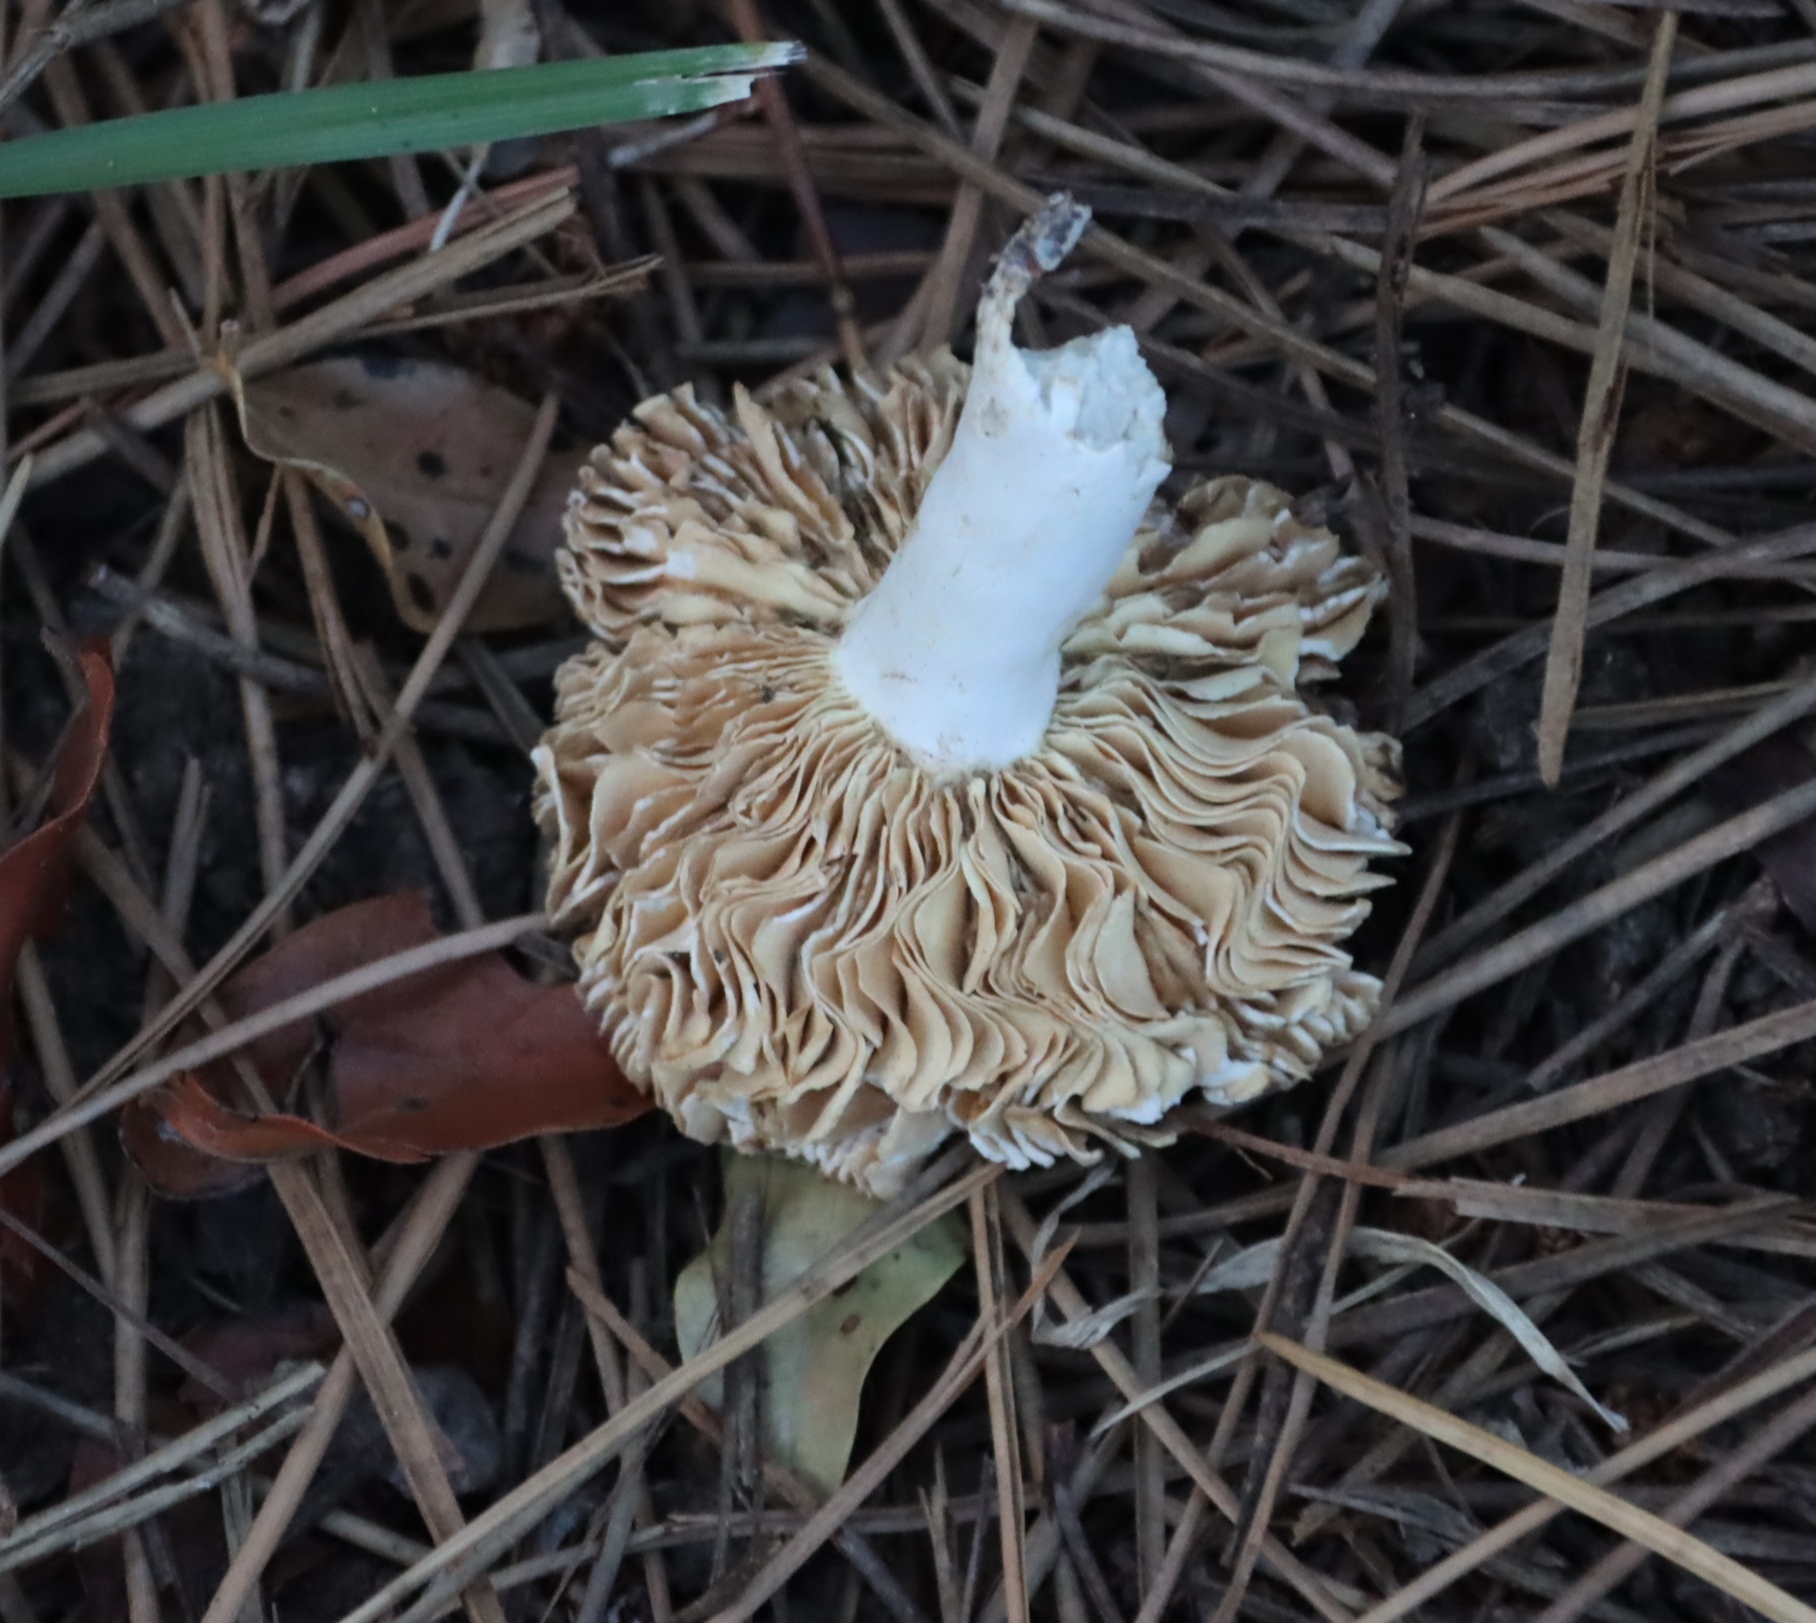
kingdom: Fungi
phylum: Basidiomycota
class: Agaricomycetes
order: Russulales
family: Russulaceae
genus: Russula
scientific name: Russula capensis
